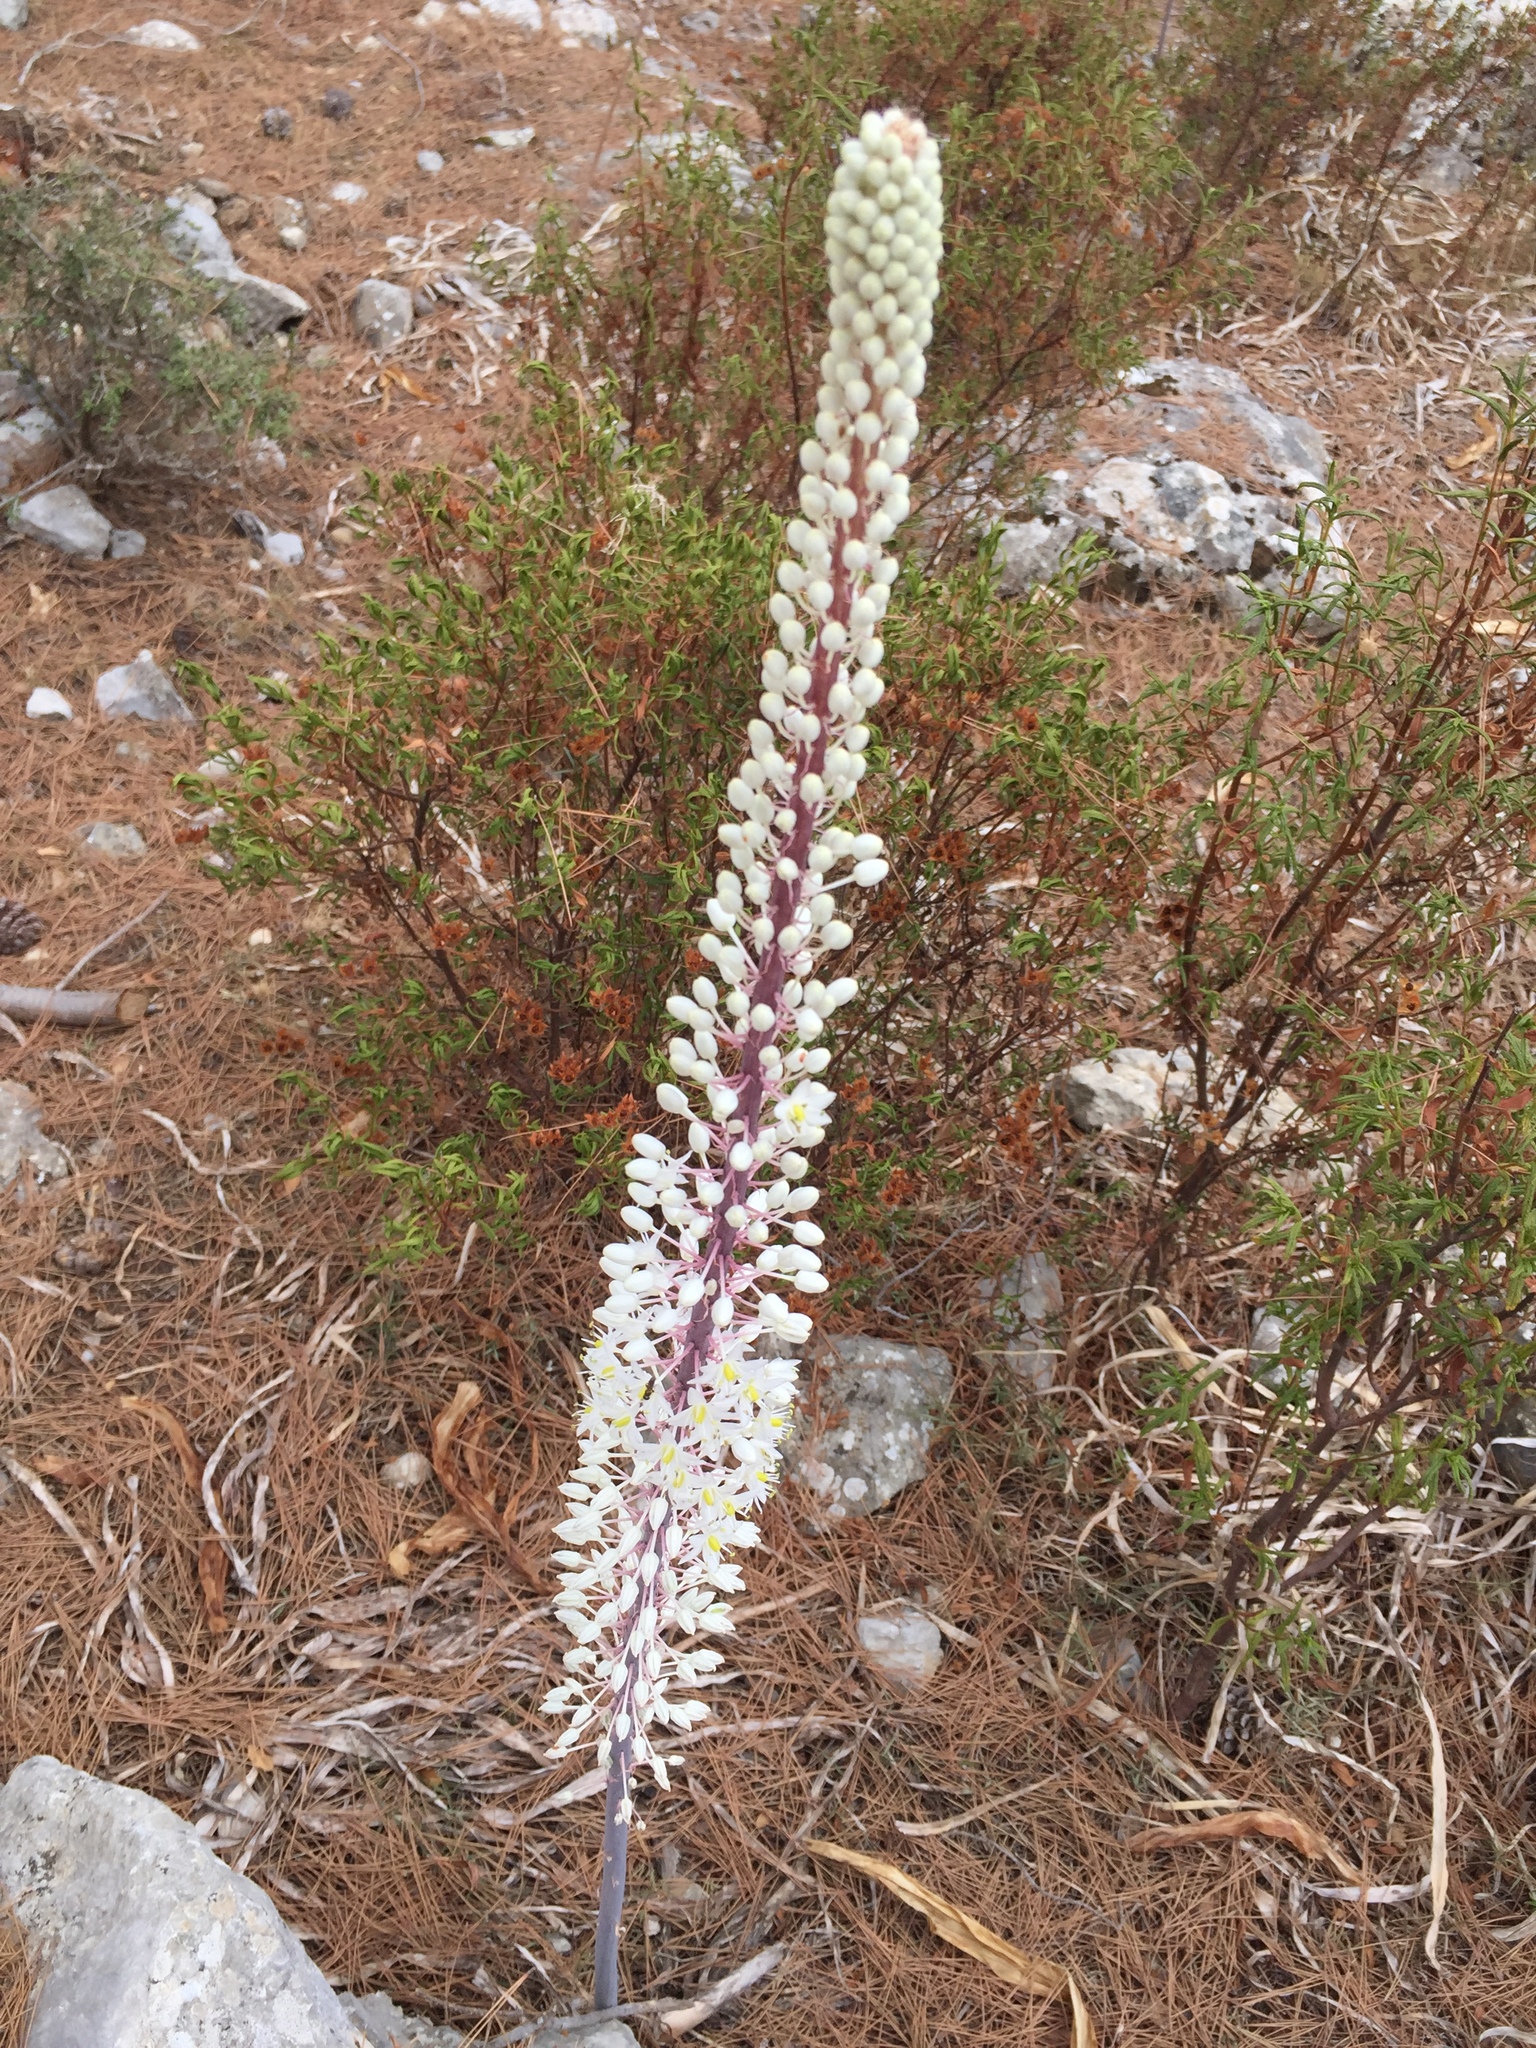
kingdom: Plantae
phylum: Tracheophyta
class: Liliopsida
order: Asparagales
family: Asparagaceae
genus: Drimia
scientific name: Drimia maritima
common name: Maritime squill
